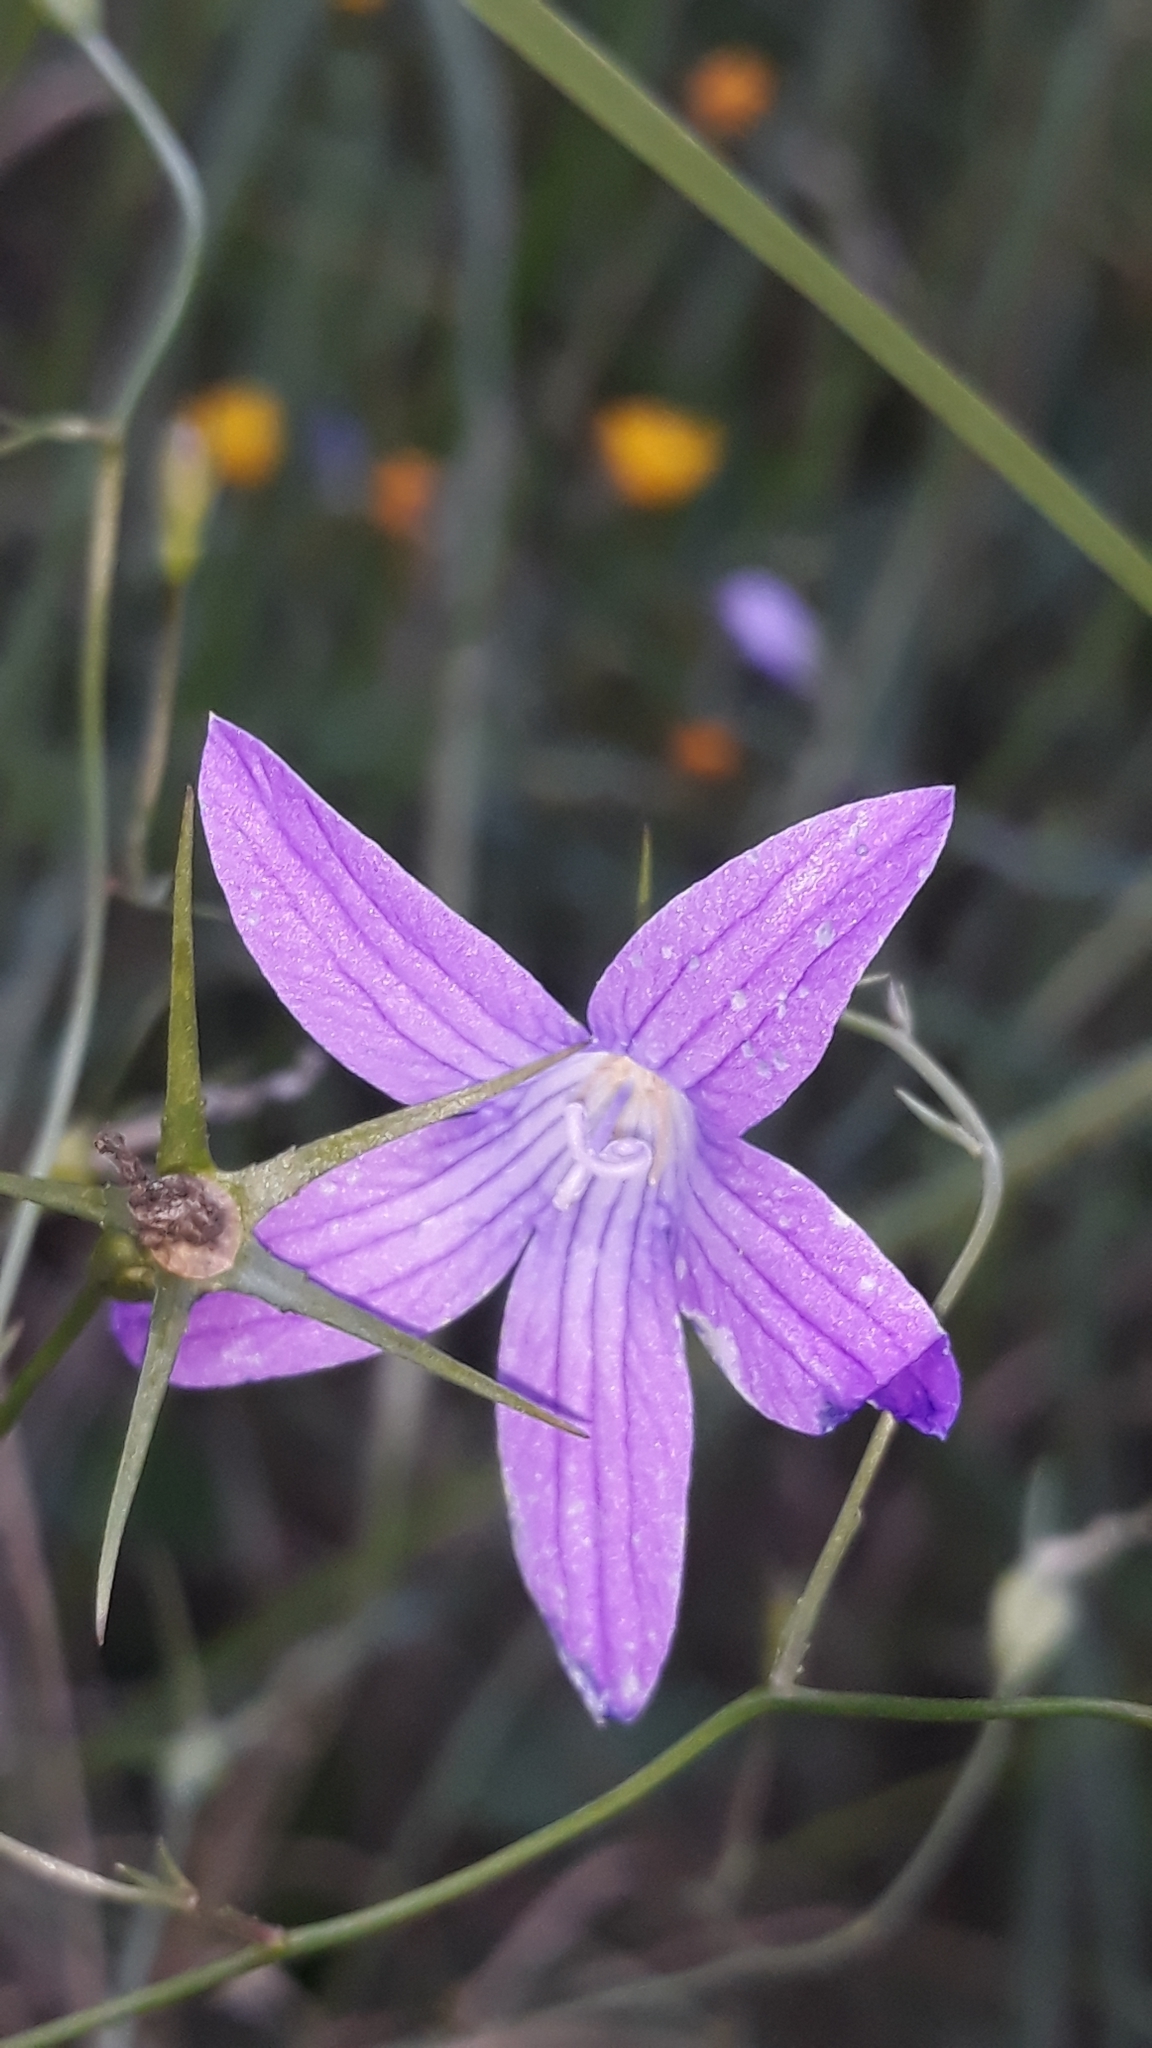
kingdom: Plantae
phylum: Tracheophyta
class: Magnoliopsida
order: Asterales
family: Campanulaceae
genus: Campanula
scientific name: Campanula patula
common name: Spreading bellflower
